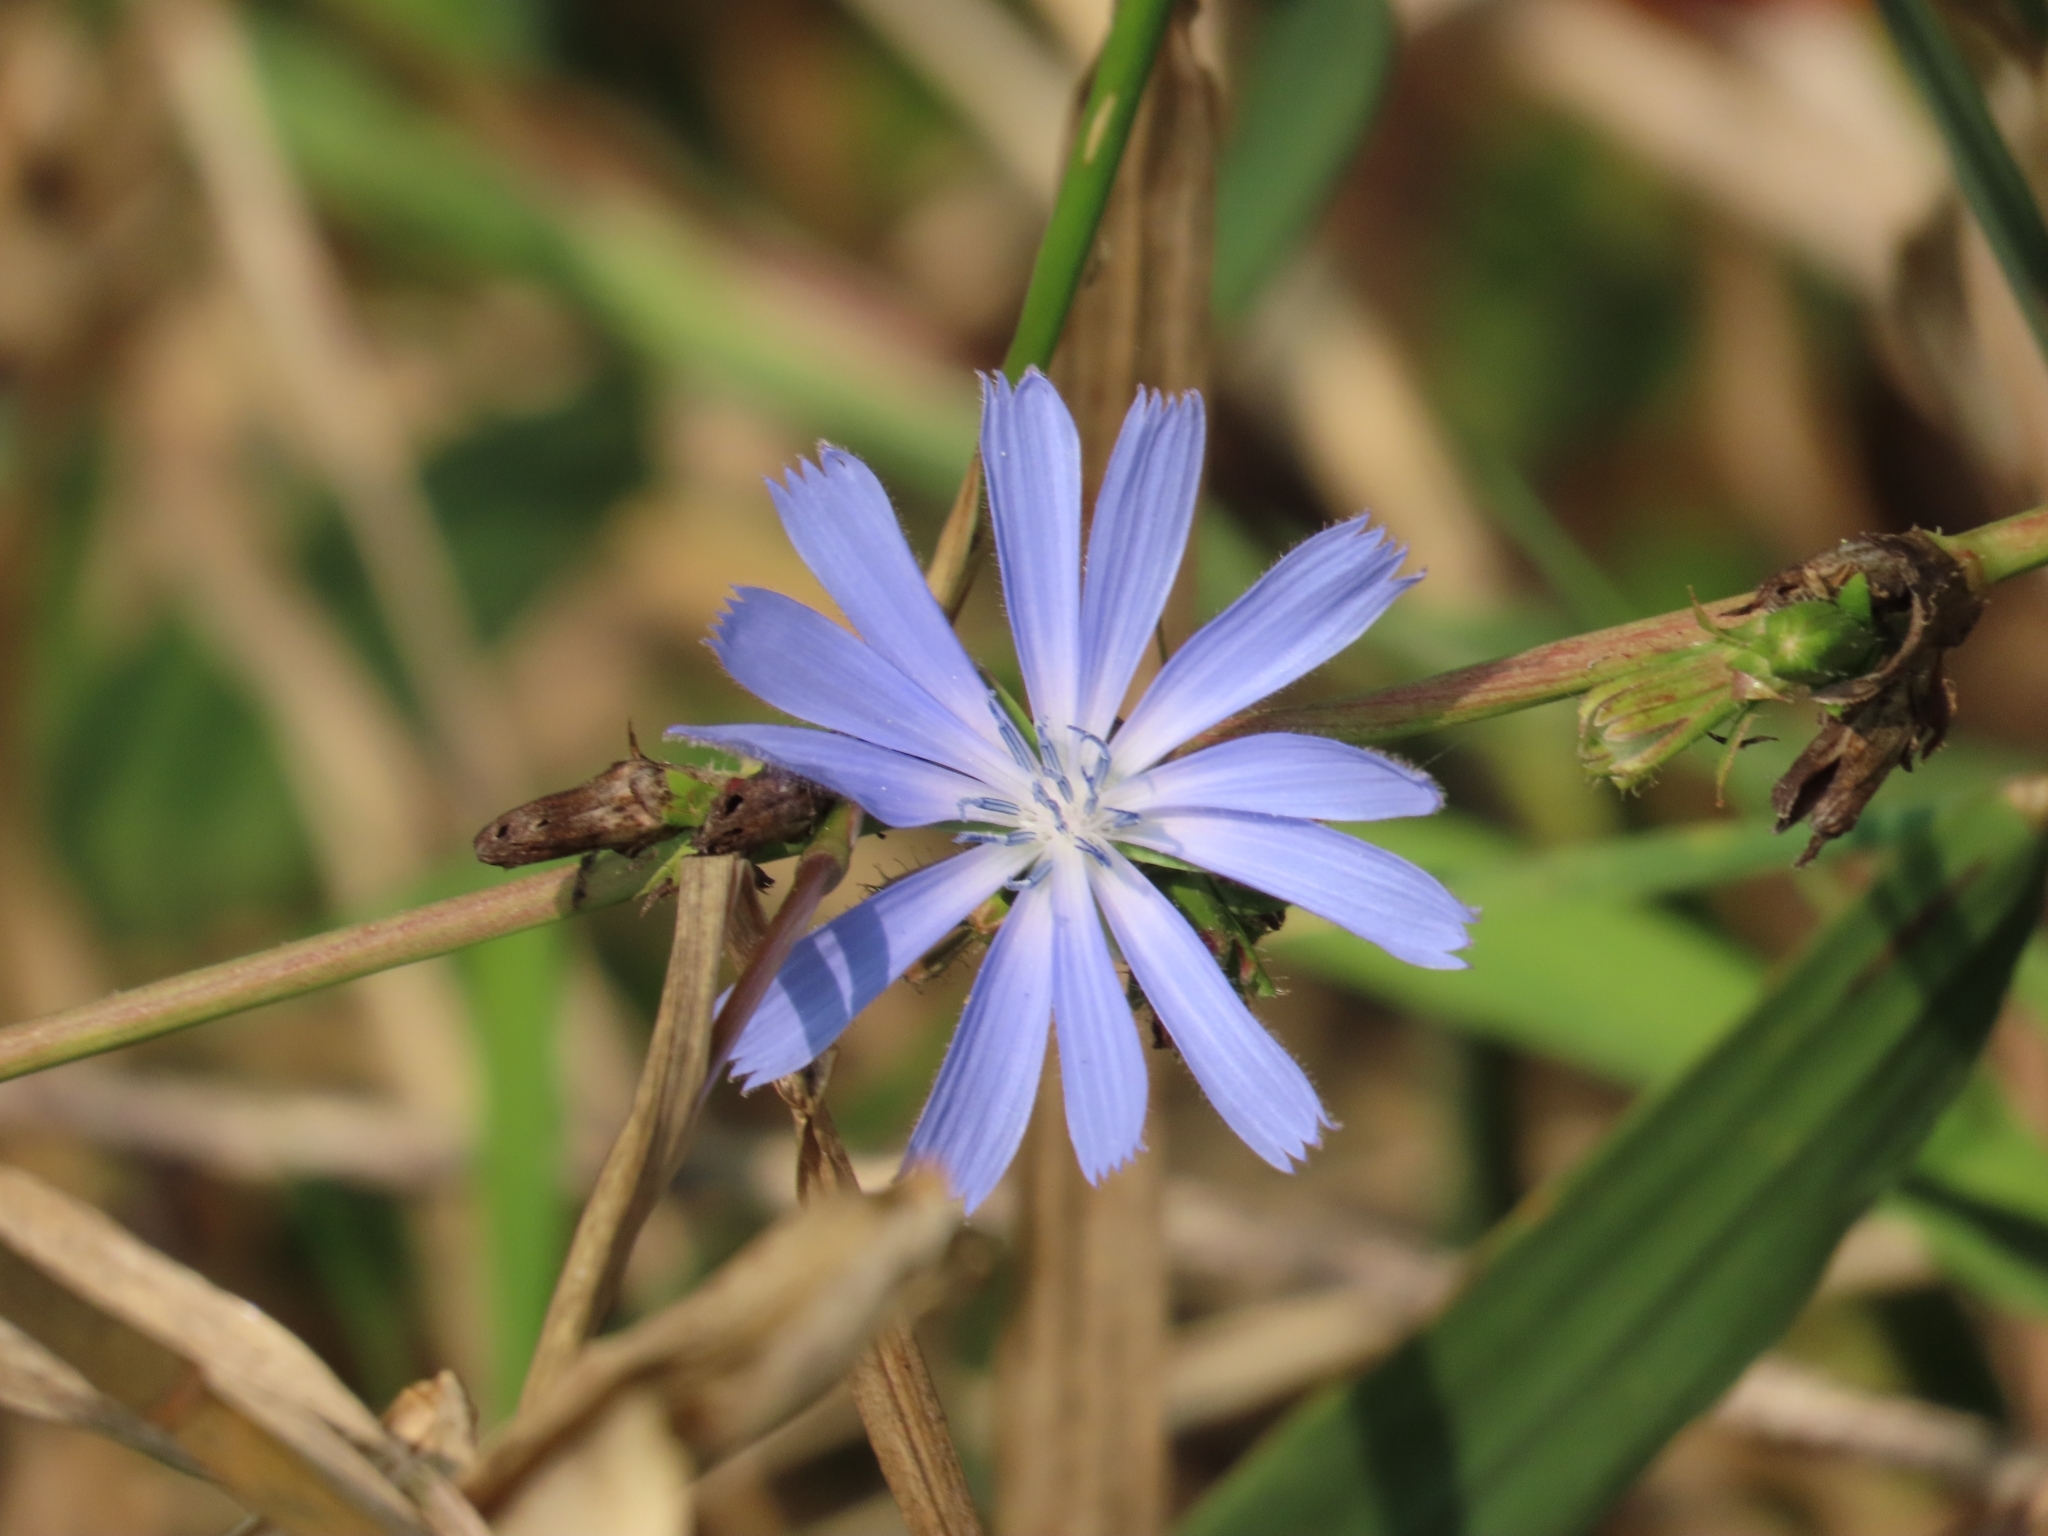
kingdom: Plantae
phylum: Tracheophyta
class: Magnoliopsida
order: Asterales
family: Asteraceae
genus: Cichorium
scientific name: Cichorium intybus
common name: Chicory
